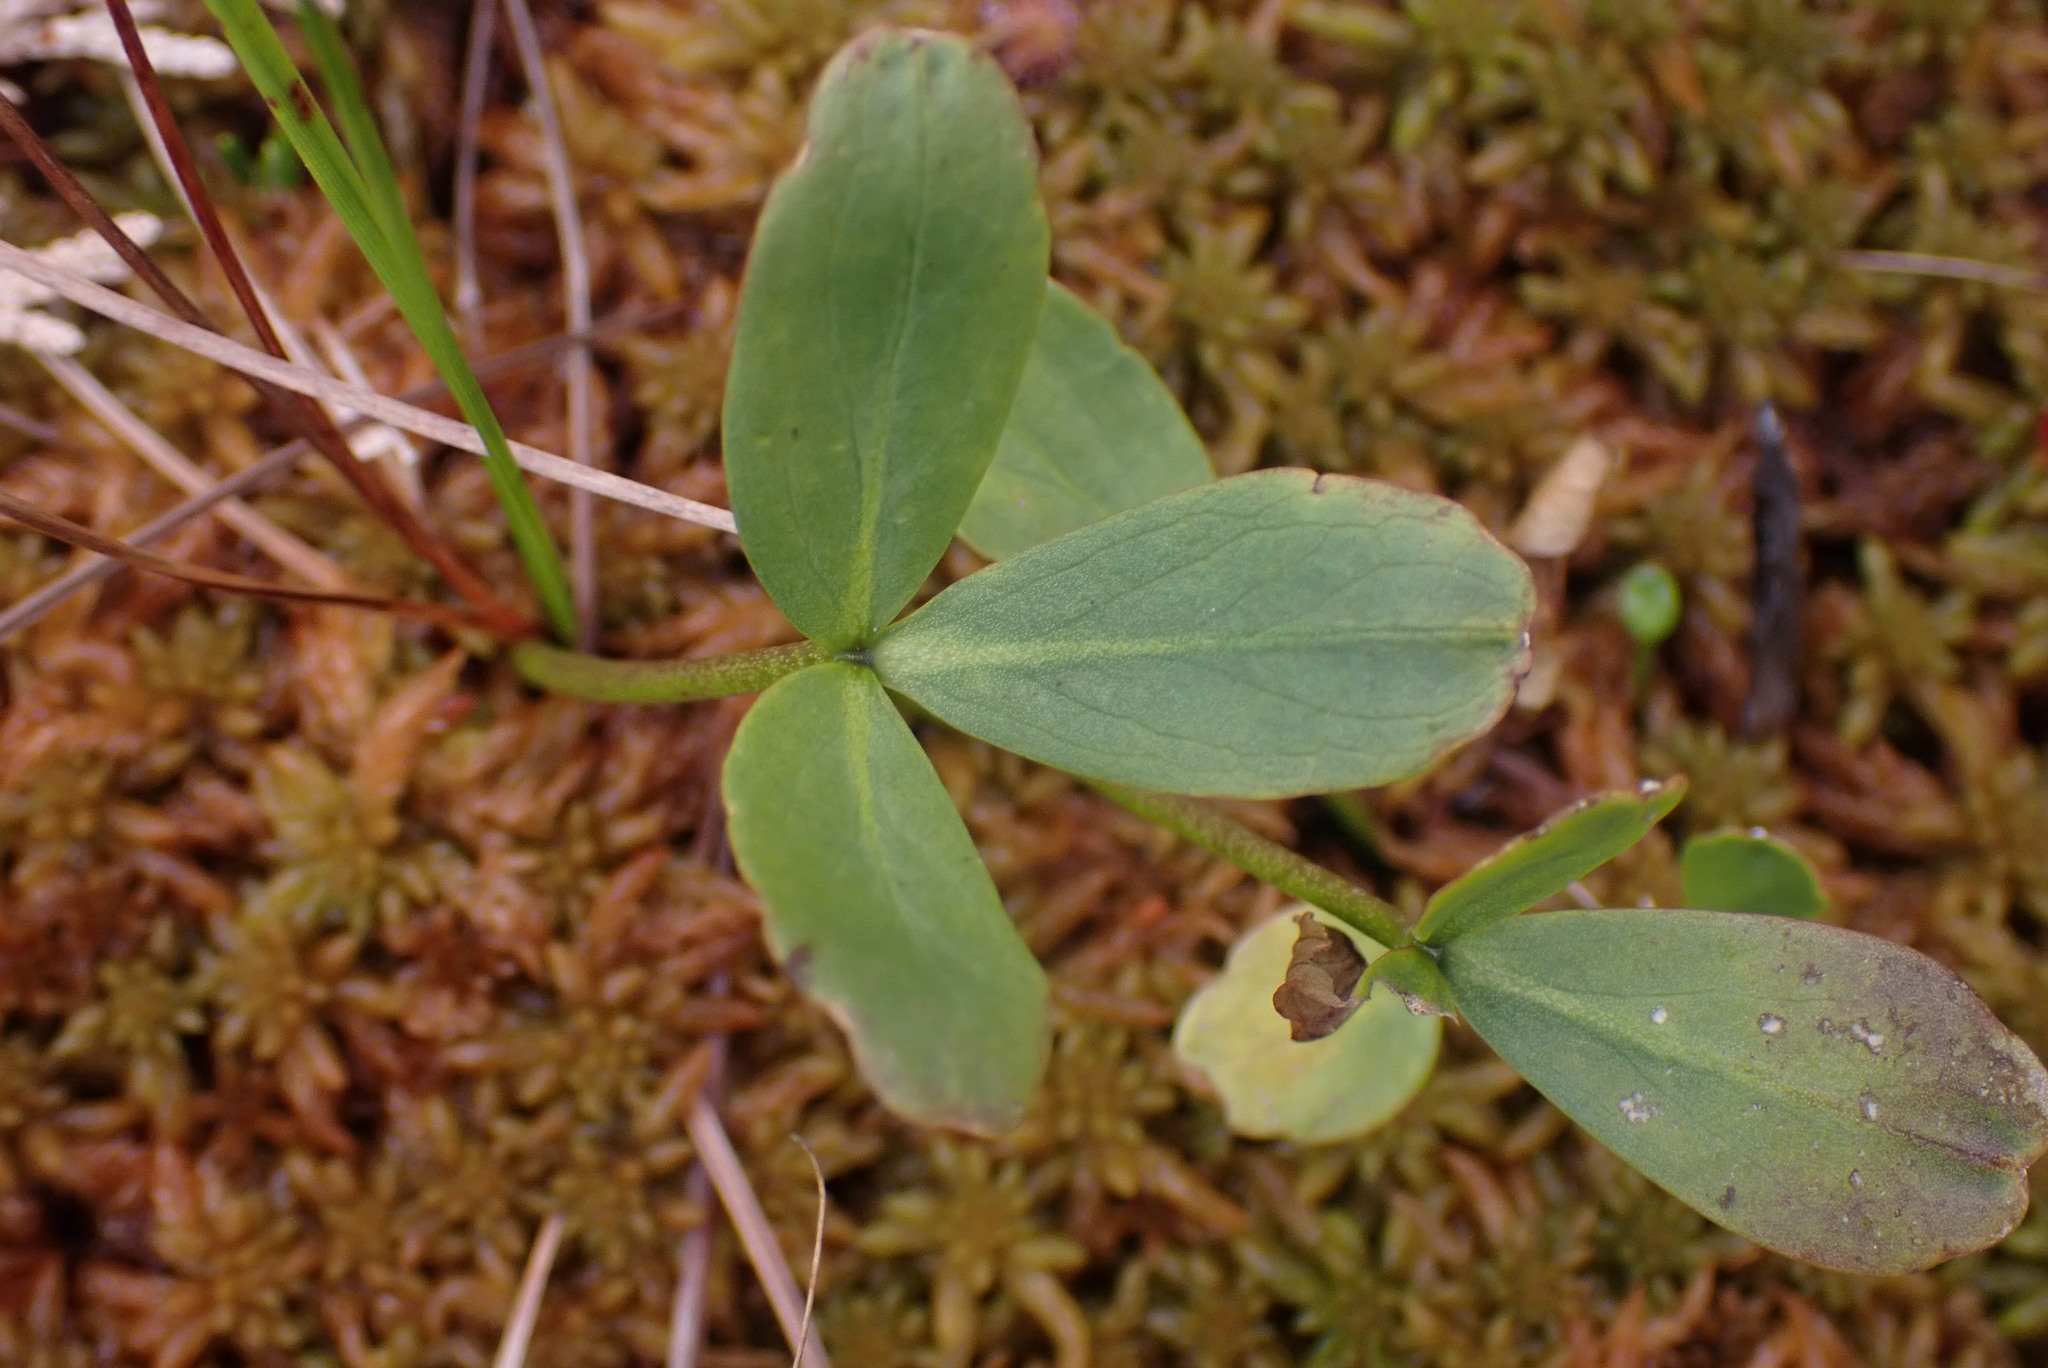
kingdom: Plantae
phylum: Tracheophyta
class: Magnoliopsida
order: Asterales
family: Menyanthaceae
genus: Menyanthes
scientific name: Menyanthes trifoliata
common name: Bogbean
